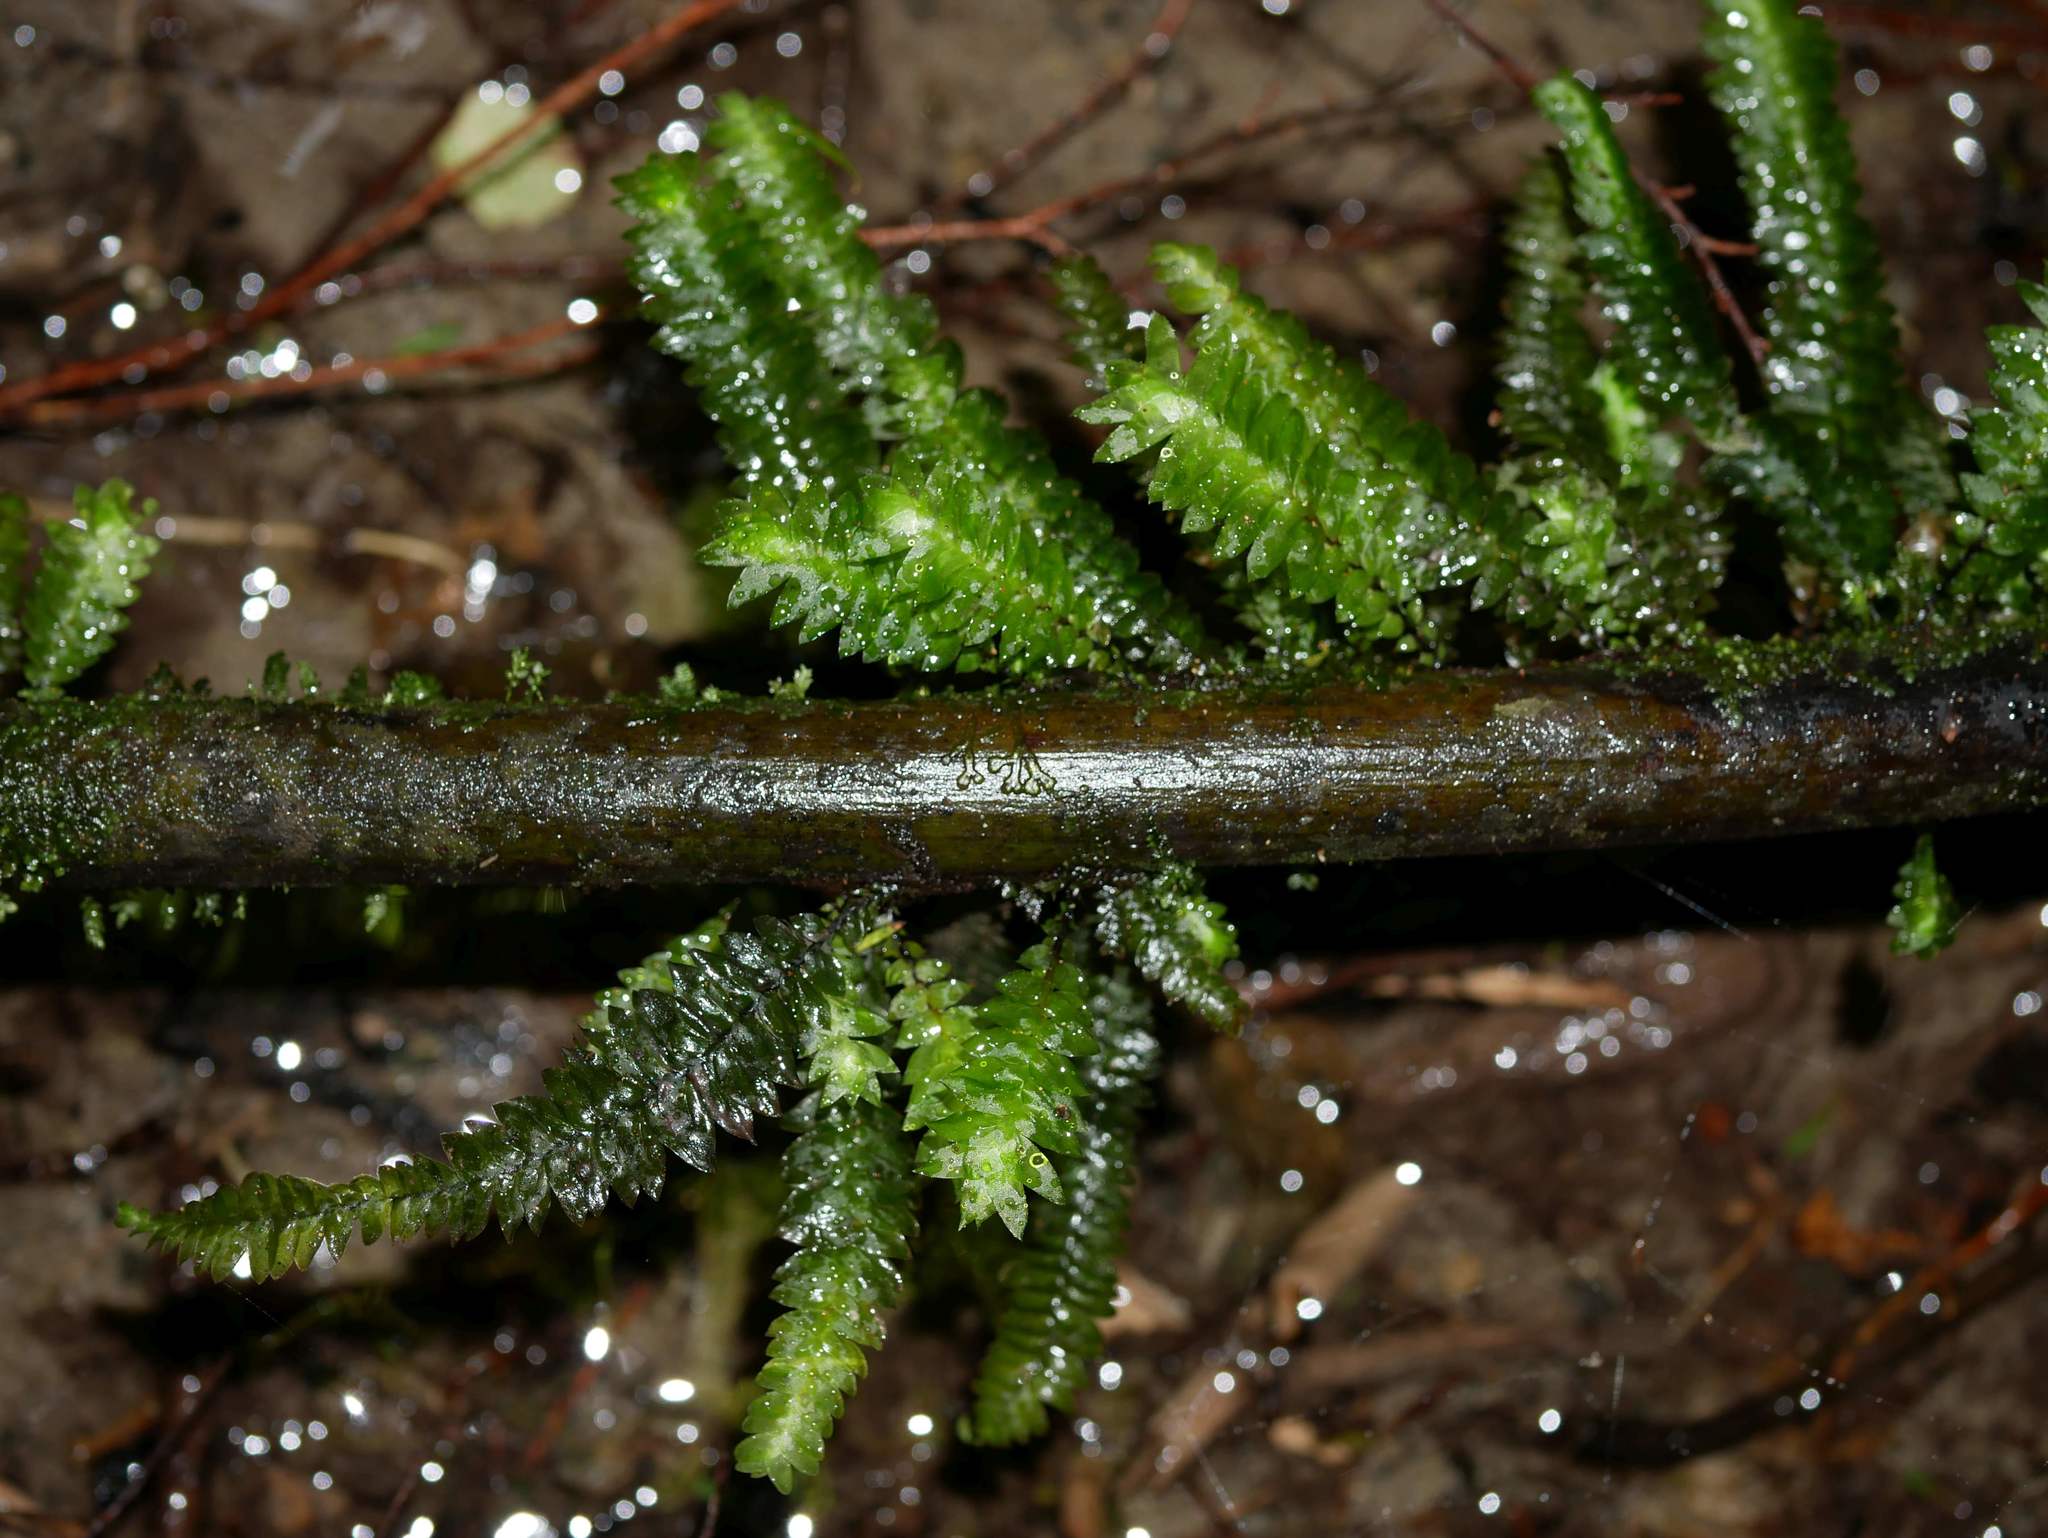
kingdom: Plantae
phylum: Bryophyta
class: Bryopsida
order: Hypopterygiales
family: Hypopterygiaceae
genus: Cyathophorum
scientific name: Cyathophorum bulbosum
